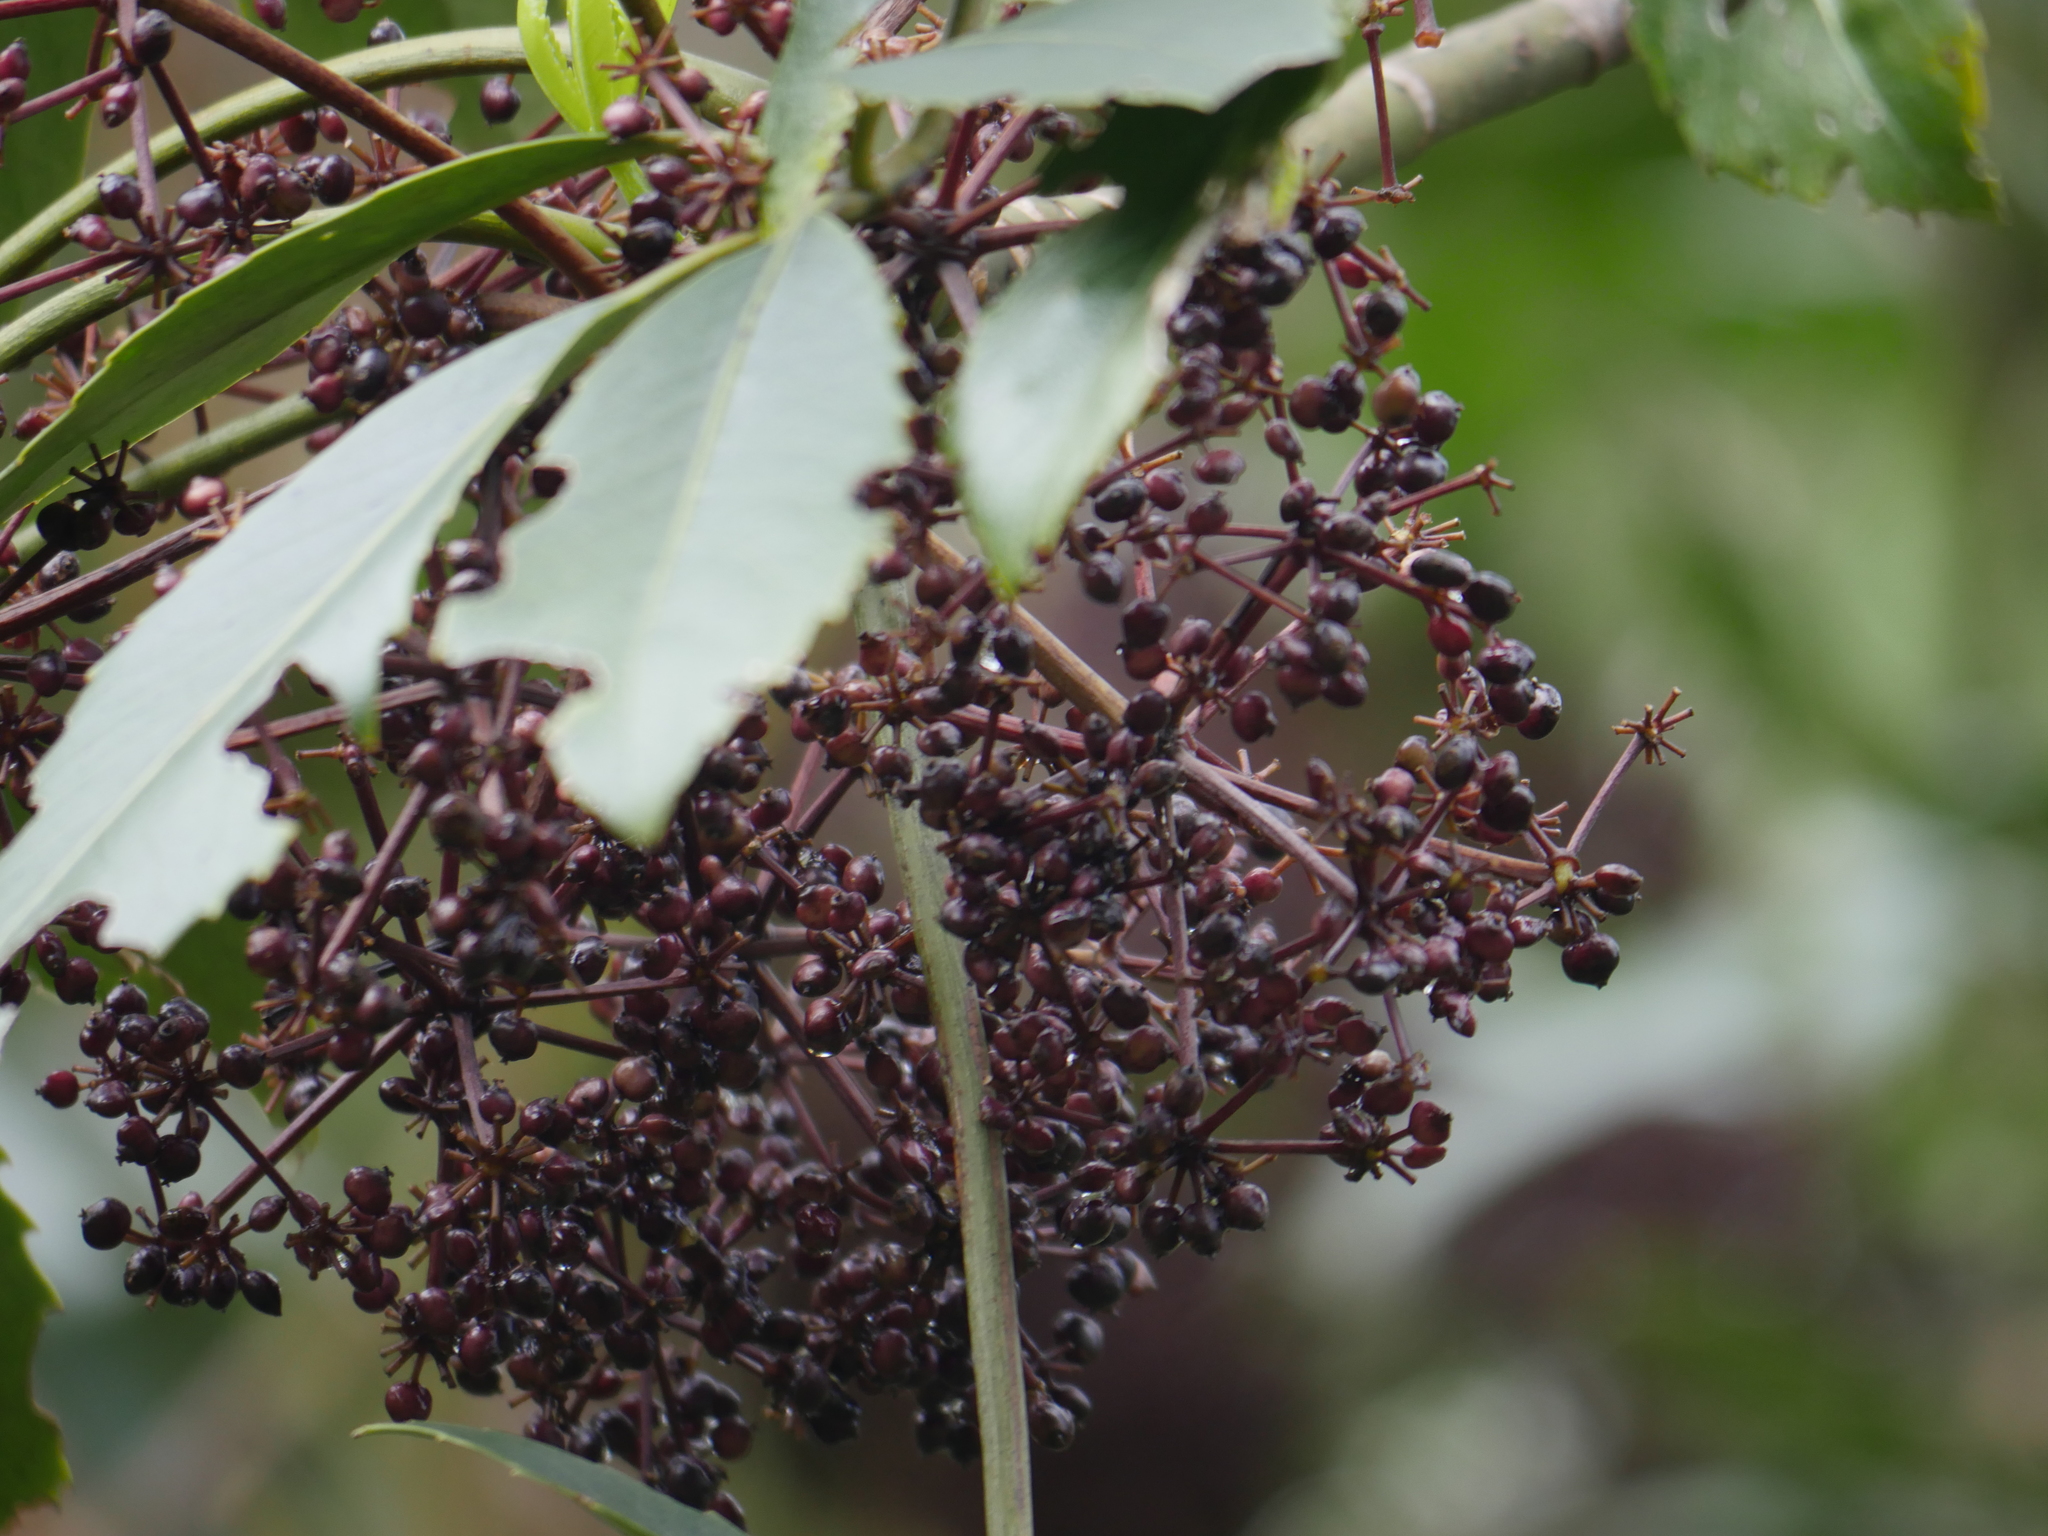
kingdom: Plantae
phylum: Tracheophyta
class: Magnoliopsida
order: Apiales
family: Araliaceae
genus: Neopanax
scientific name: Neopanax arboreus
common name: Five-fingers
